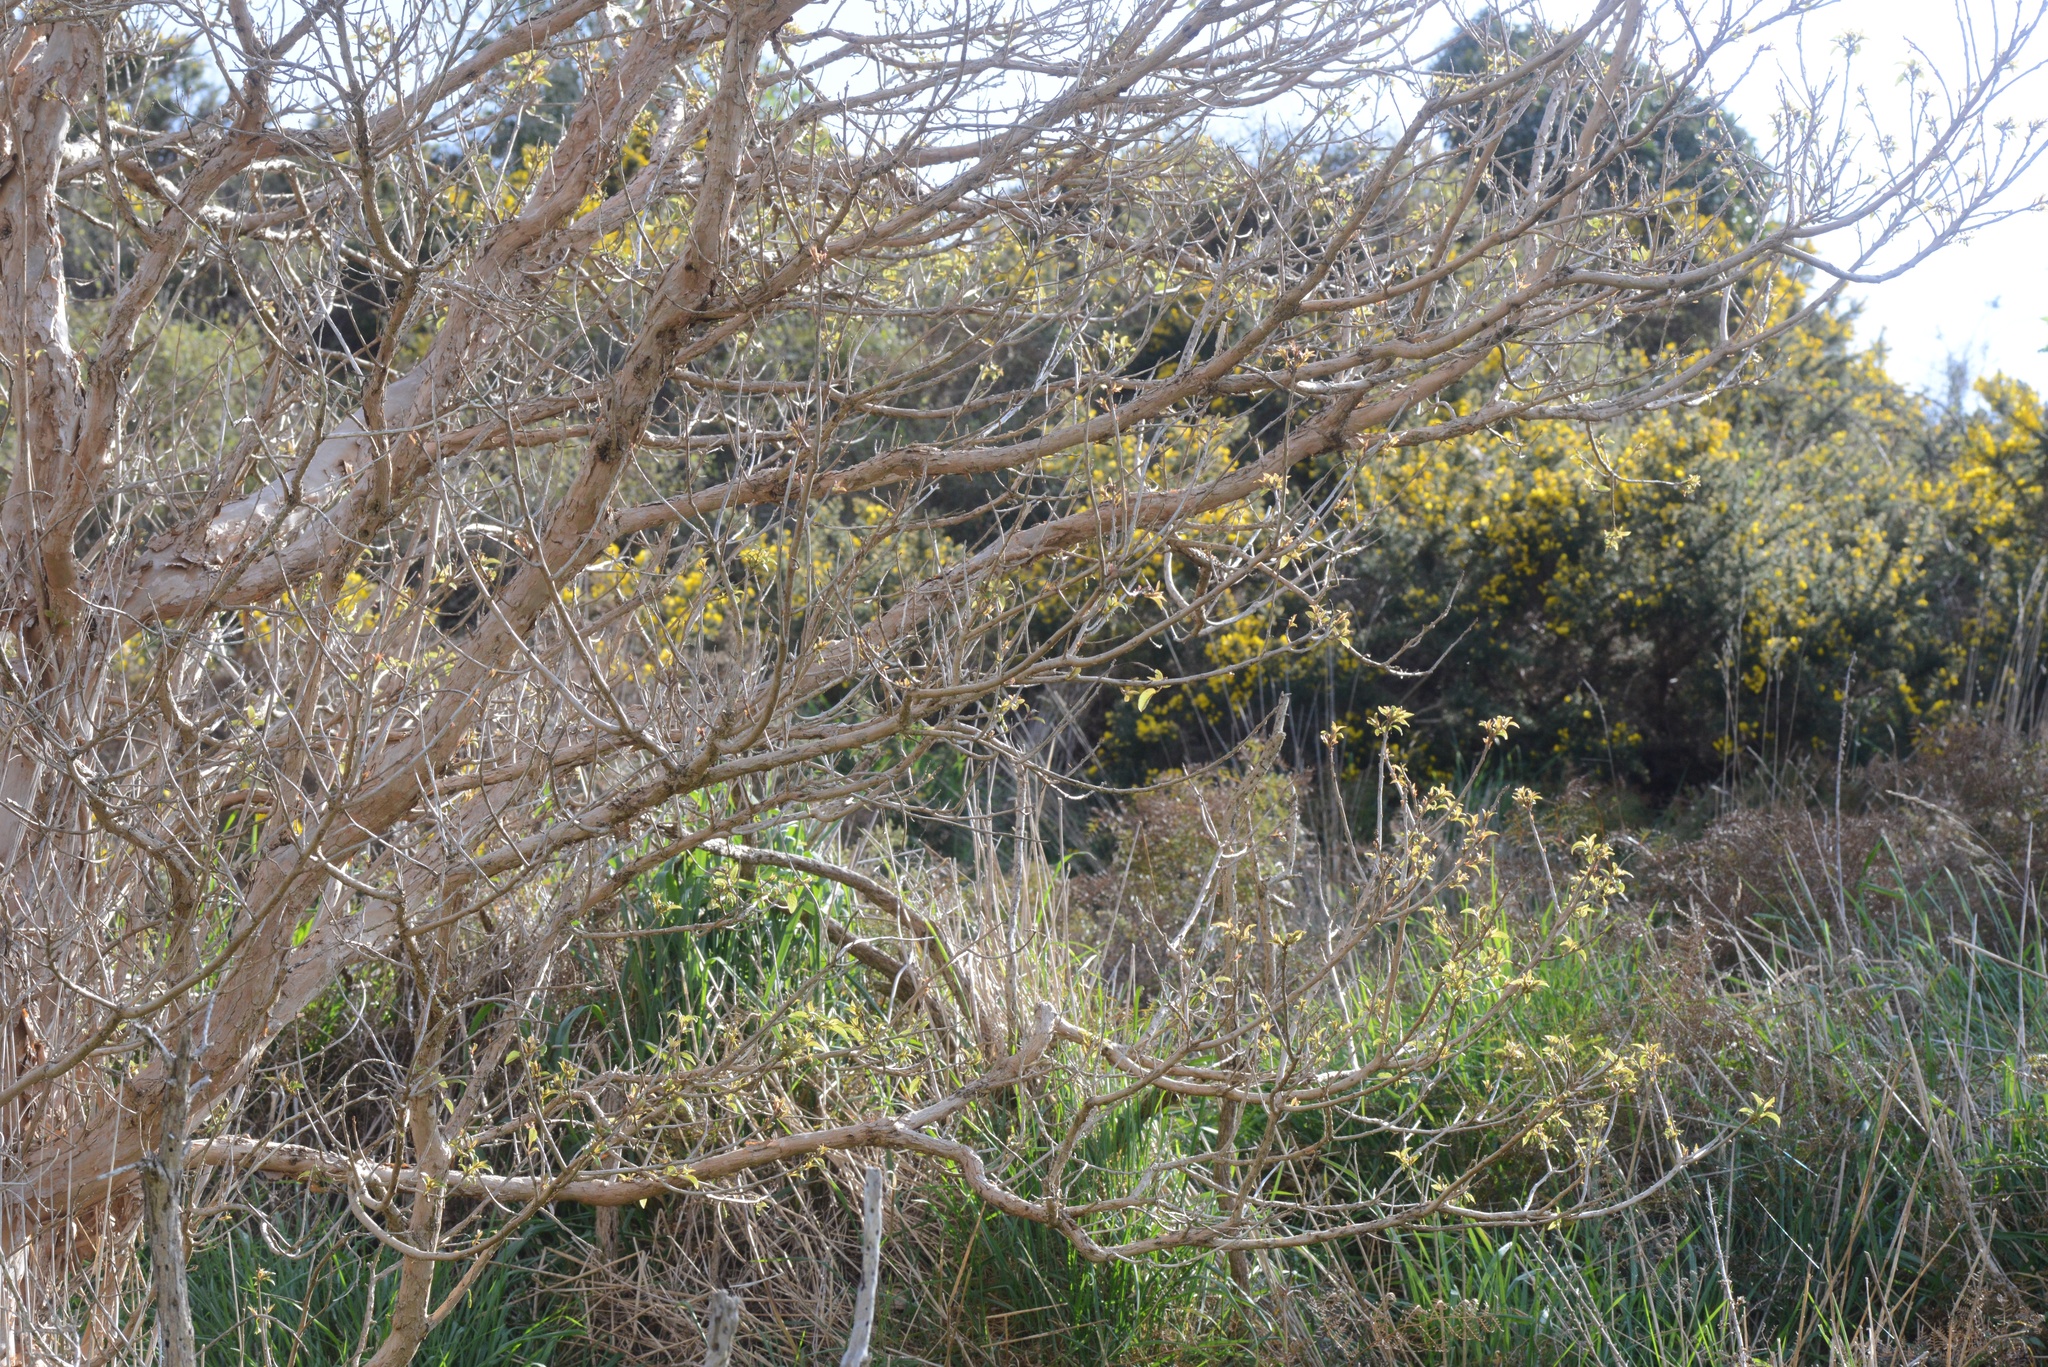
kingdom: Plantae
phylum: Tracheophyta
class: Magnoliopsida
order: Myrtales
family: Onagraceae
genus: Fuchsia
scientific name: Fuchsia excorticata
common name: Tree fuchsia
